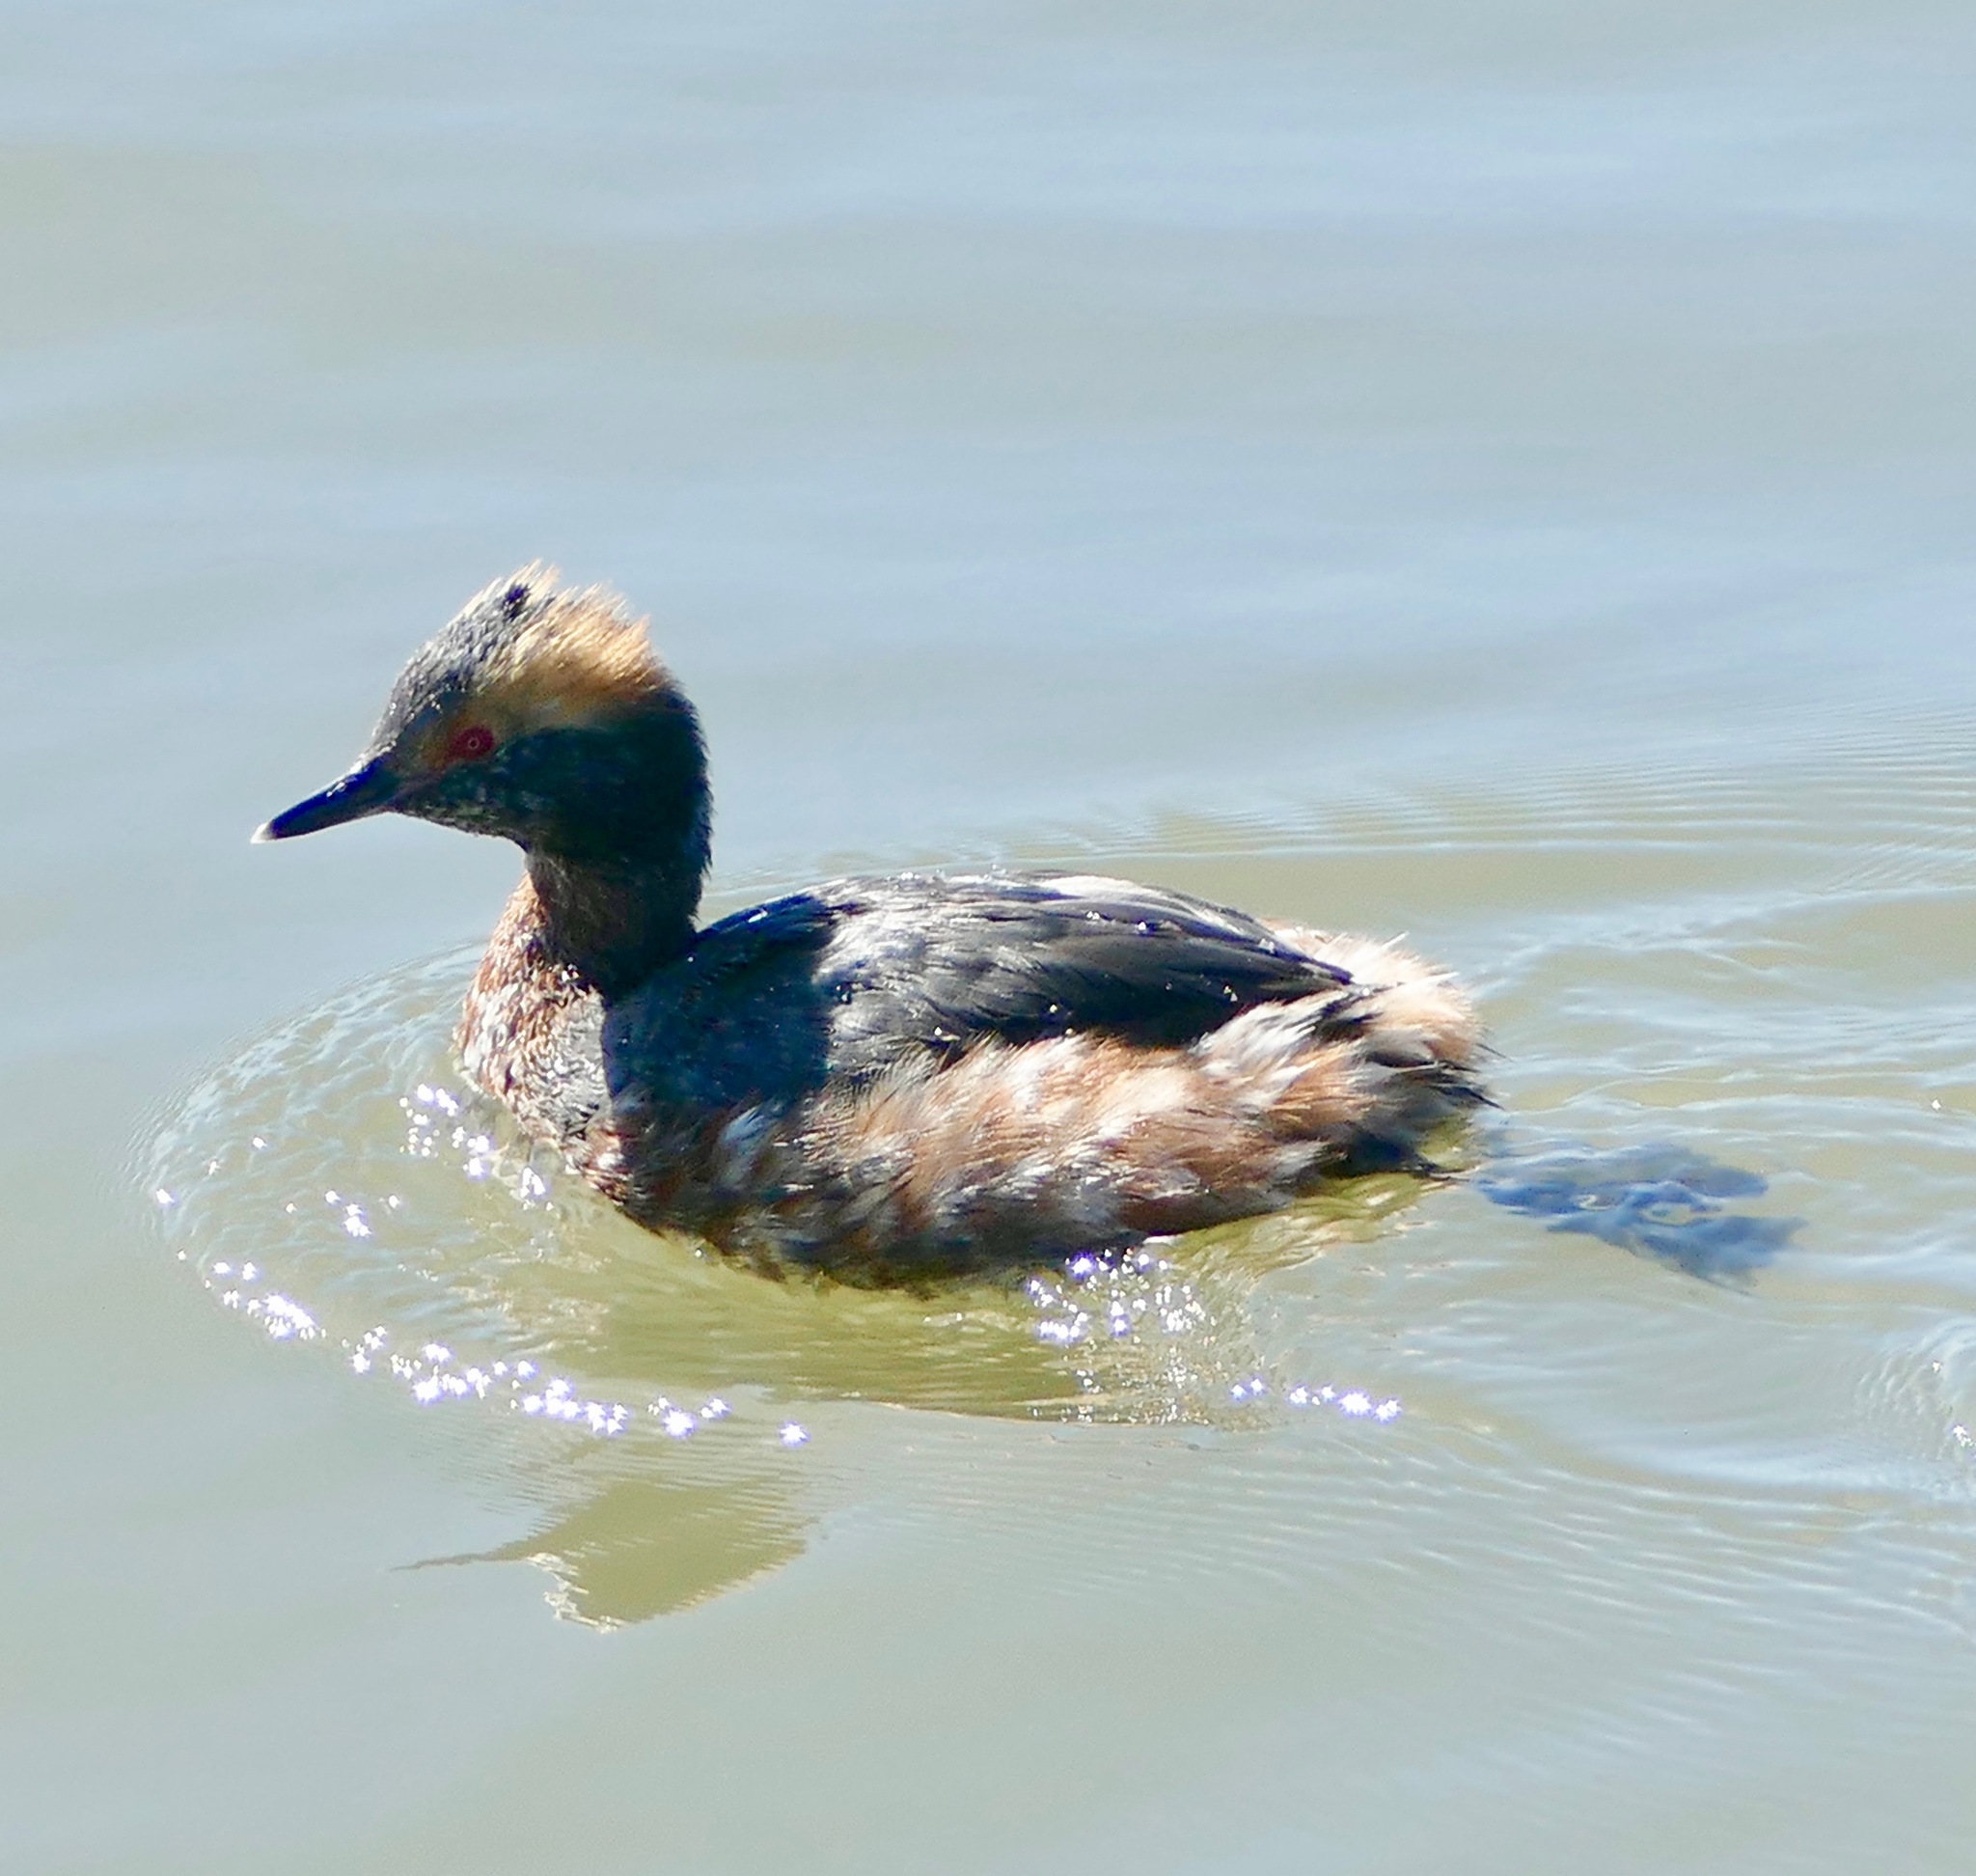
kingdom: Animalia
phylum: Chordata
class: Aves
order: Podicipediformes
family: Podicipedidae
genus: Podiceps
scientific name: Podiceps auritus
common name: Horned grebe
